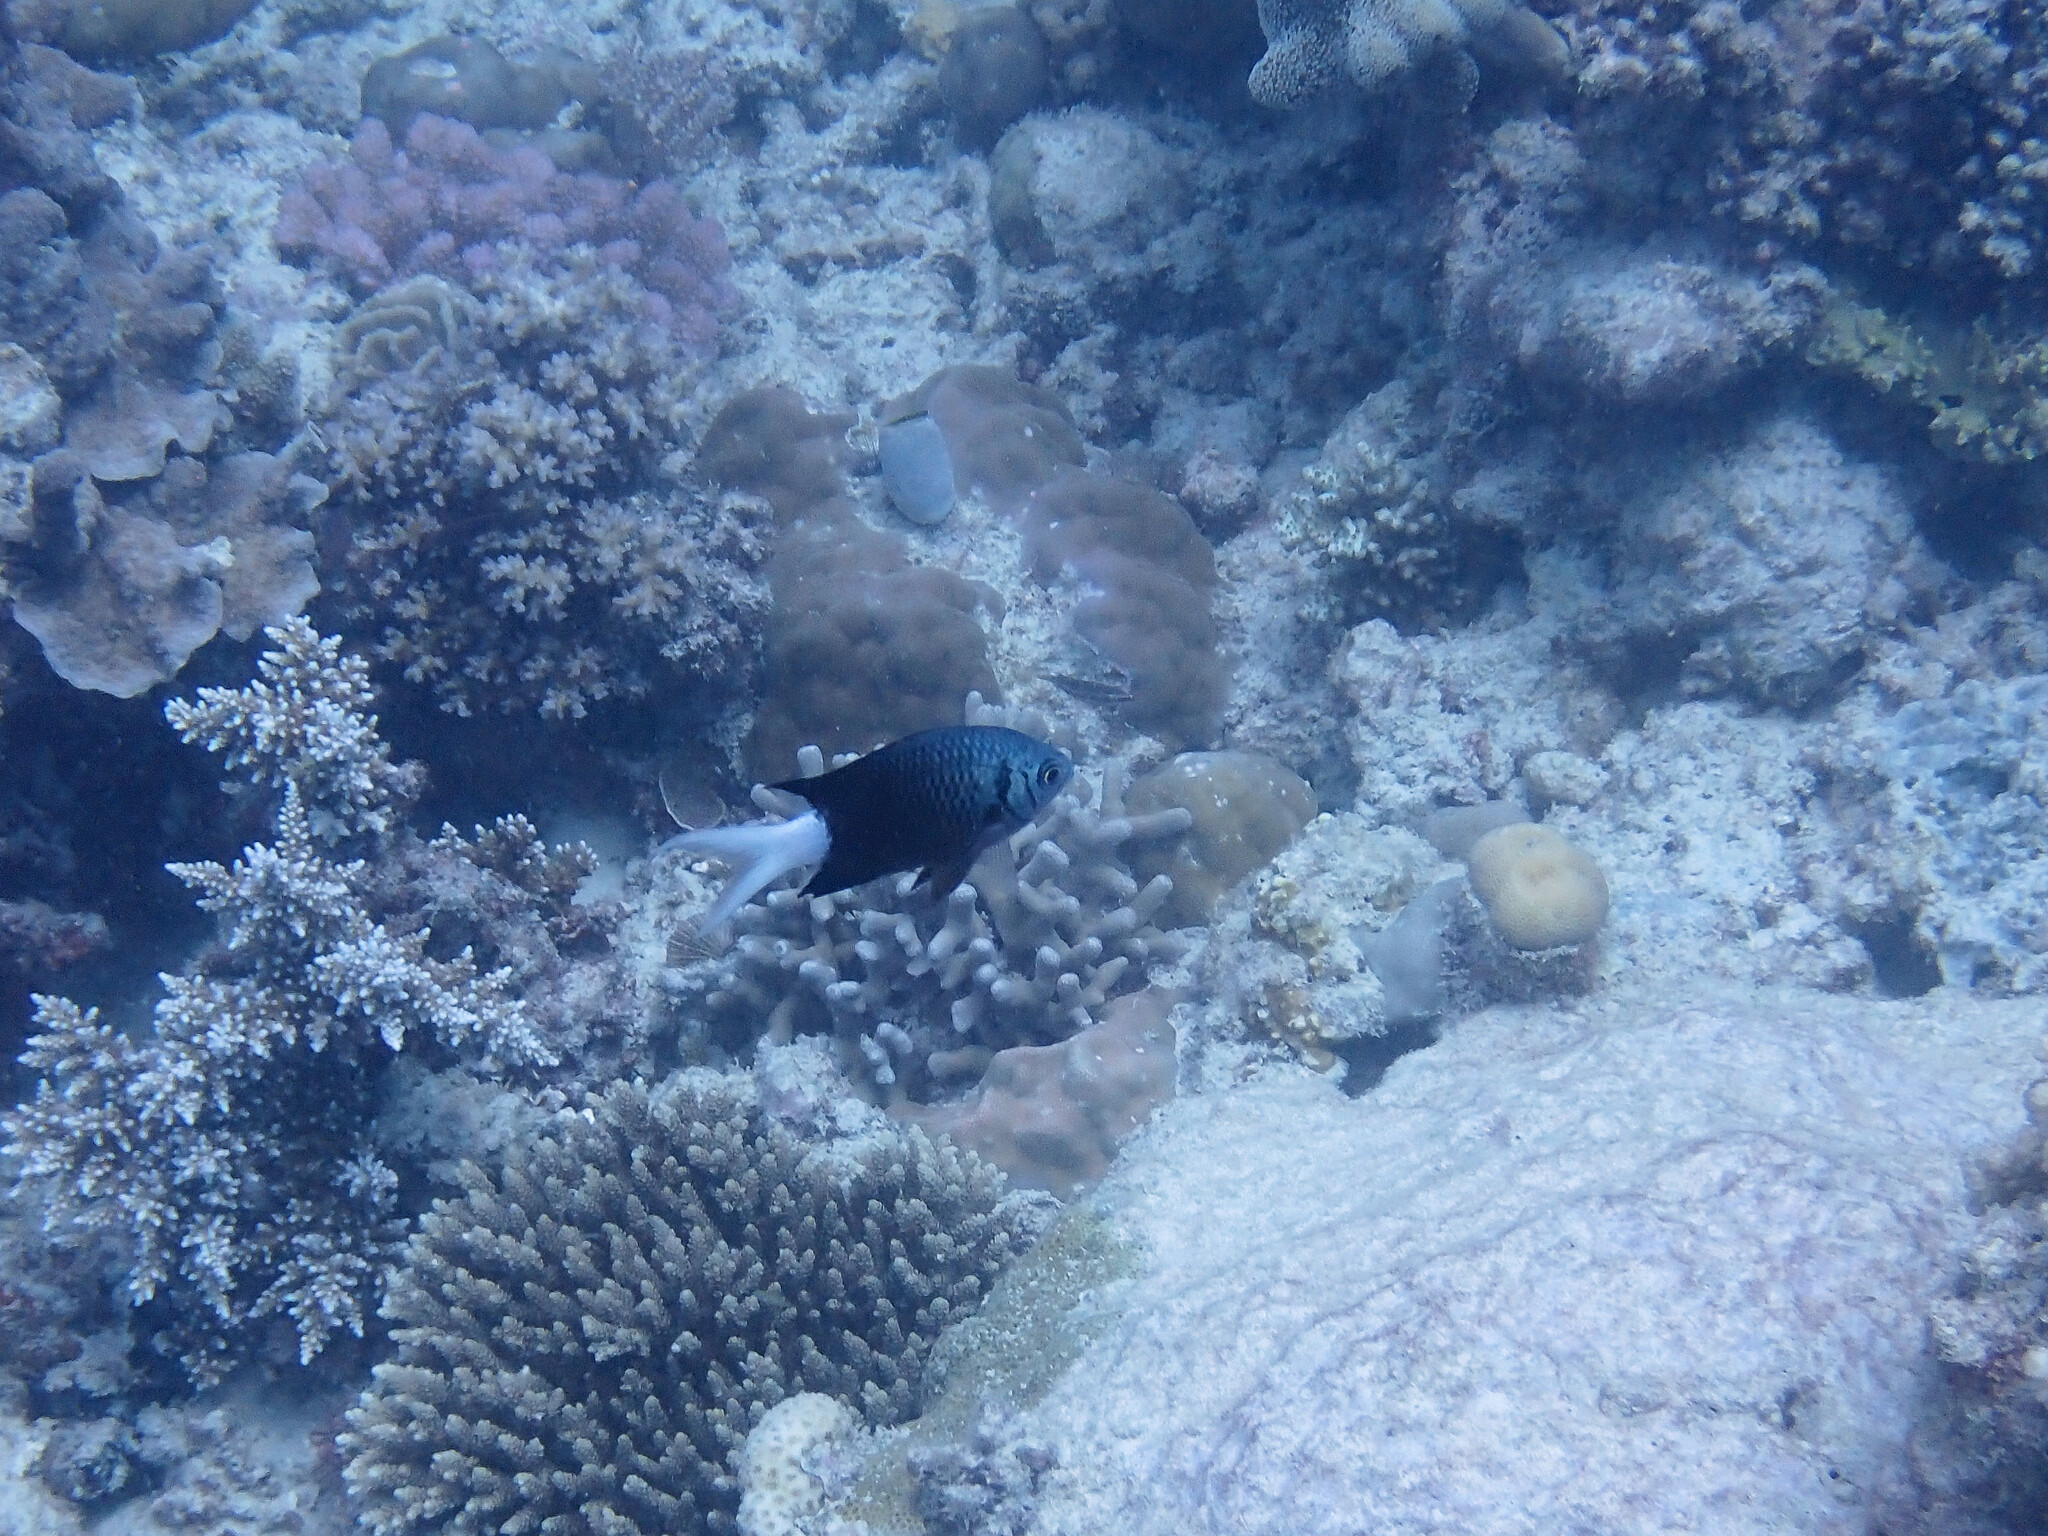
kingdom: Animalia
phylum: Chordata
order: Perciformes
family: Pomacentridae
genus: Chromis
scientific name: Chromis xanthura
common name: Black chromis
